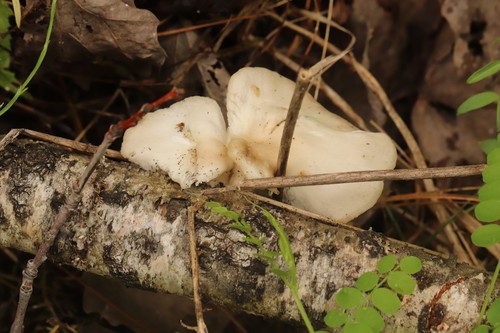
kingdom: Fungi
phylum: Basidiomycota
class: Agaricomycetes
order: Agaricales
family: Pleurotaceae
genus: Pleurotus
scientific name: Pleurotus pulmonarius
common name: Pale oyster
